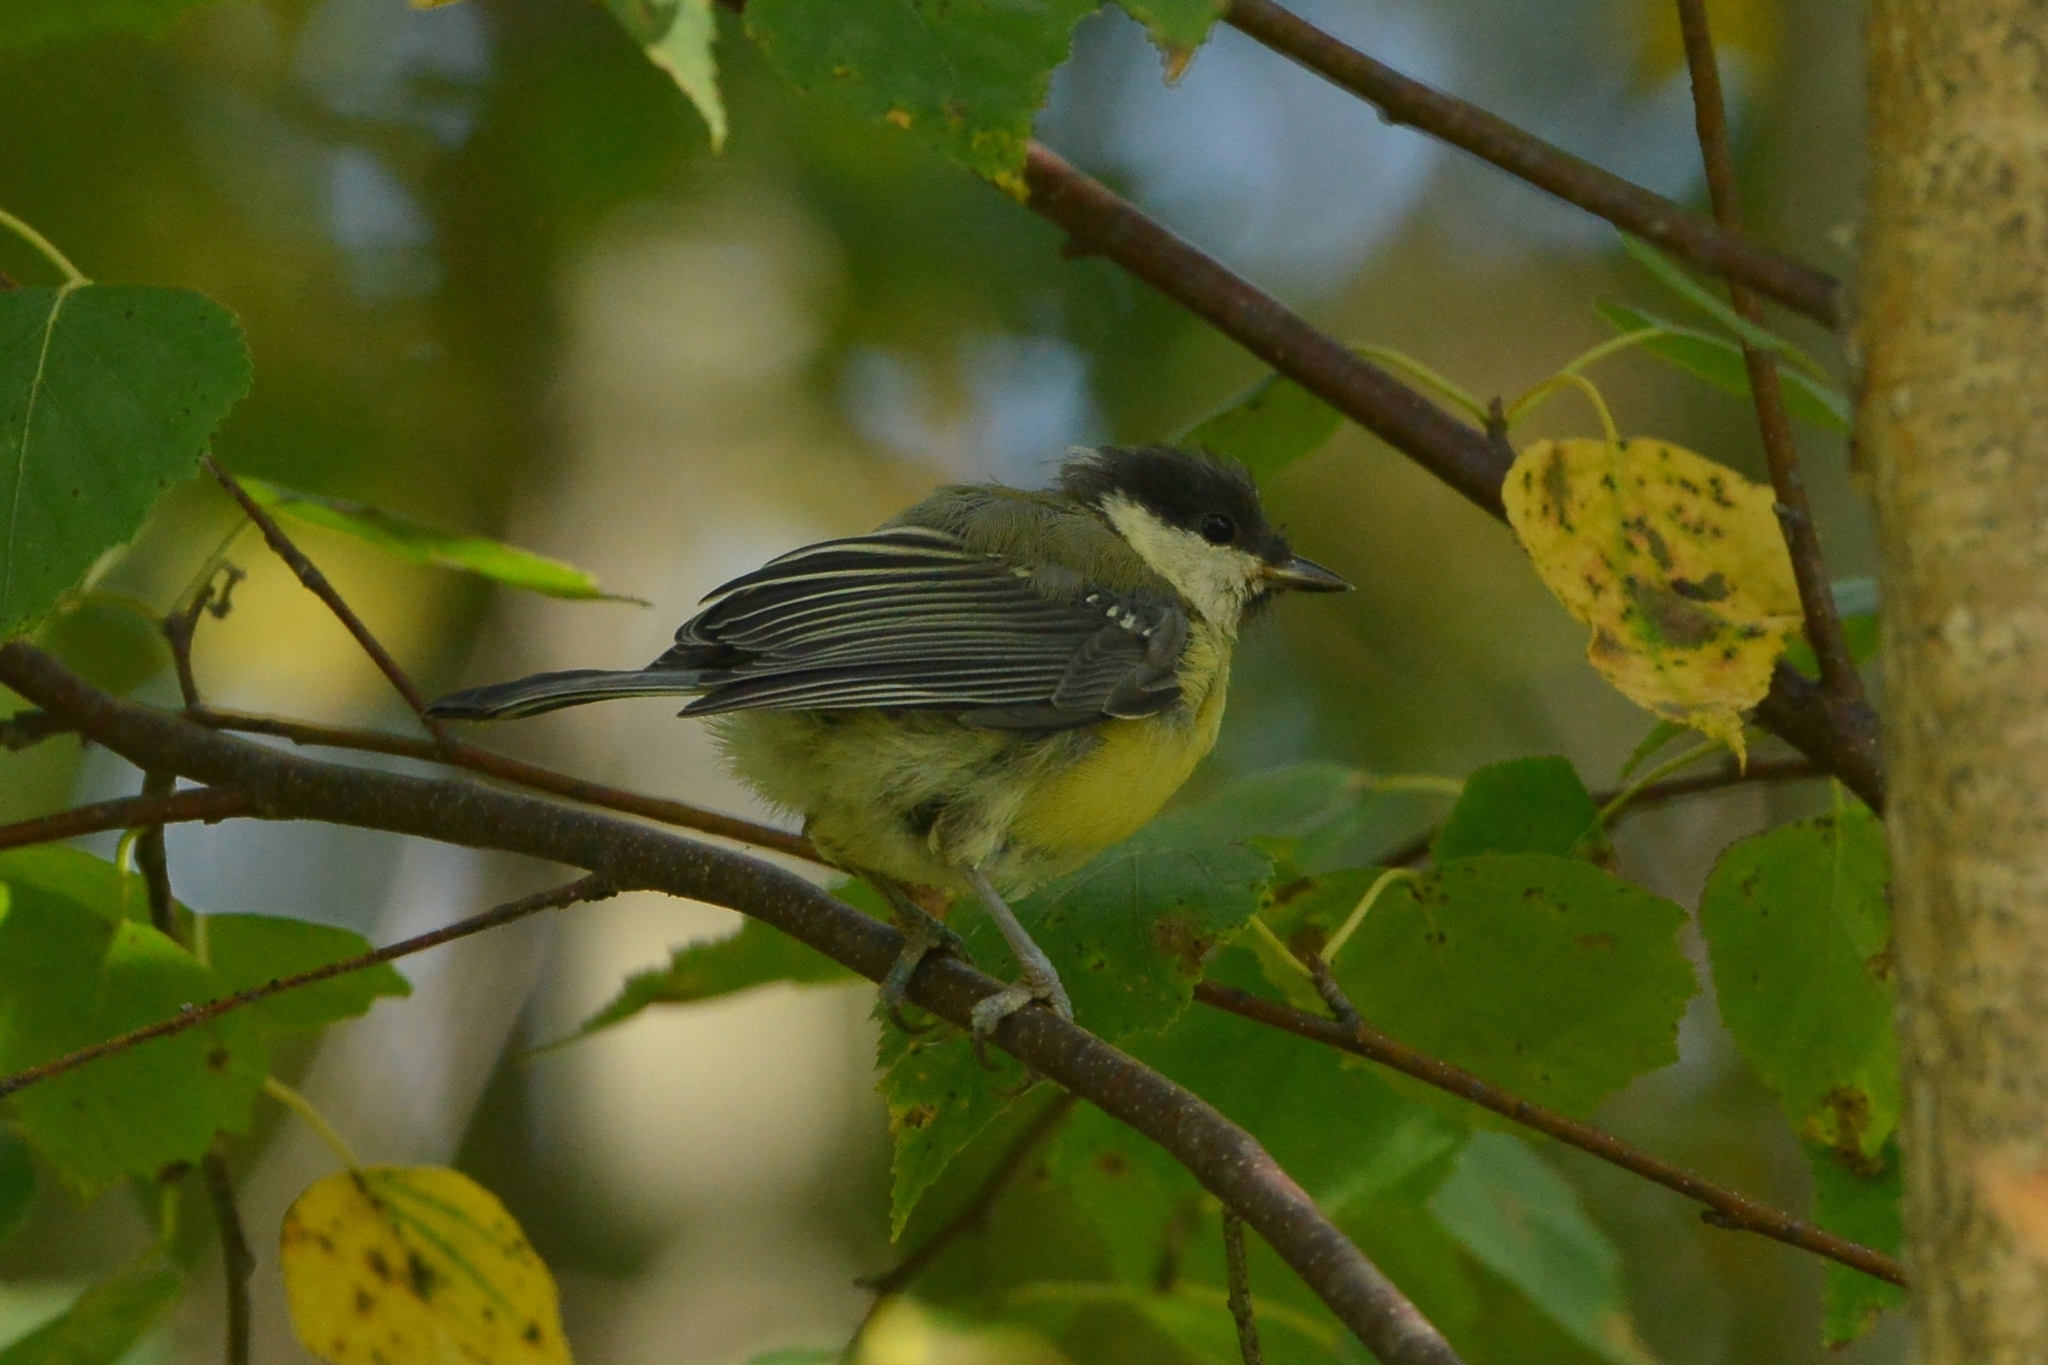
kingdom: Animalia
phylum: Chordata
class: Aves
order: Passeriformes
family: Paridae
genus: Parus
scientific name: Parus major
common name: Great tit
